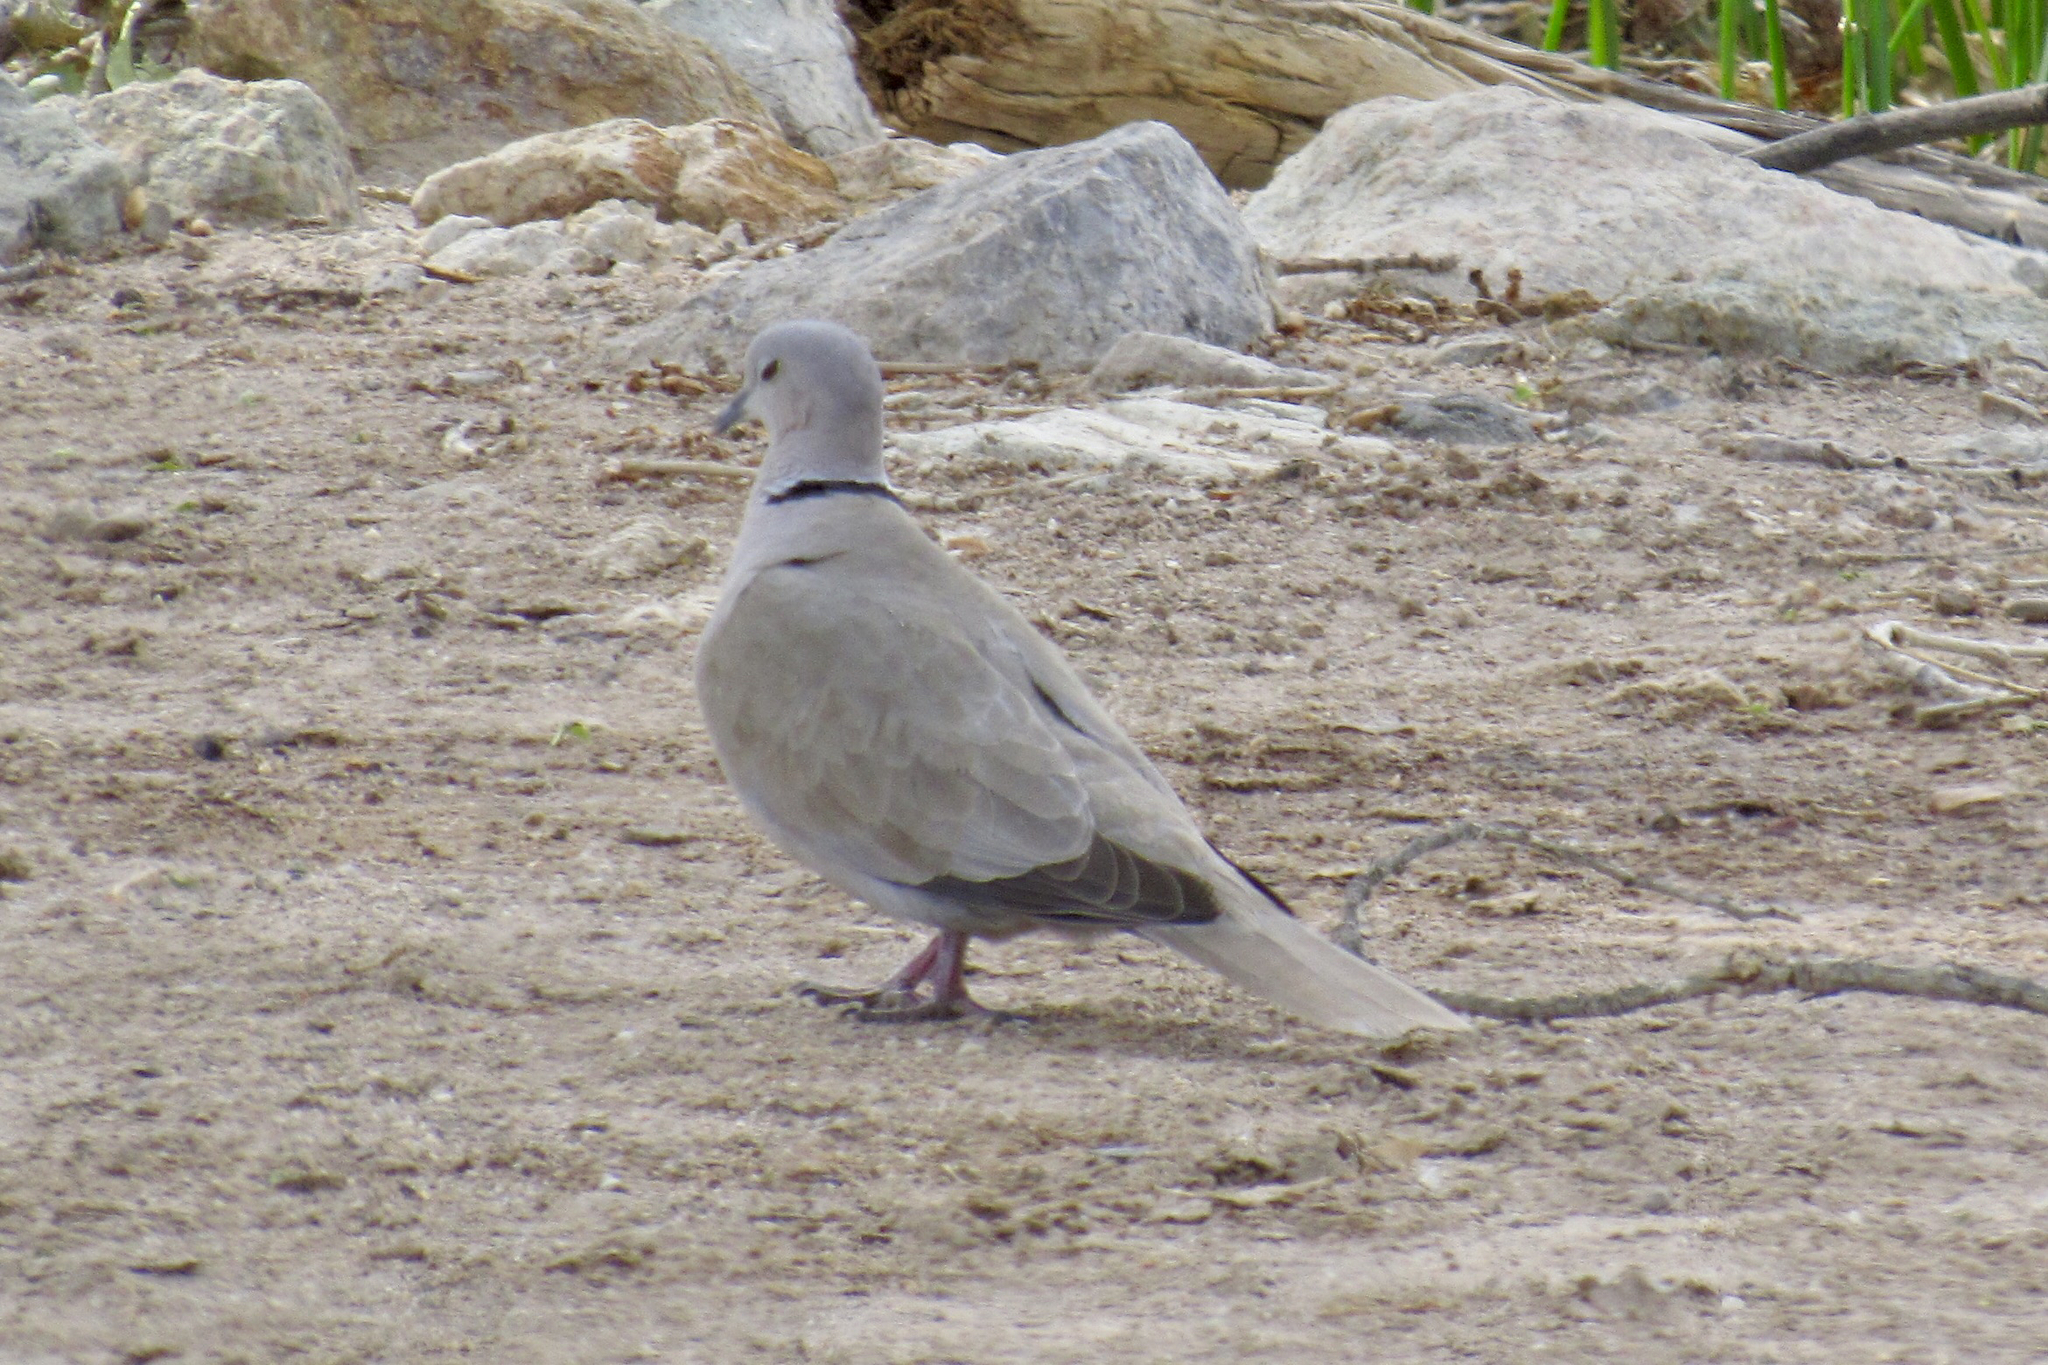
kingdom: Animalia
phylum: Chordata
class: Aves
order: Columbiformes
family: Columbidae
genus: Streptopelia
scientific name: Streptopelia decaocto
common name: Eurasian collared dove
